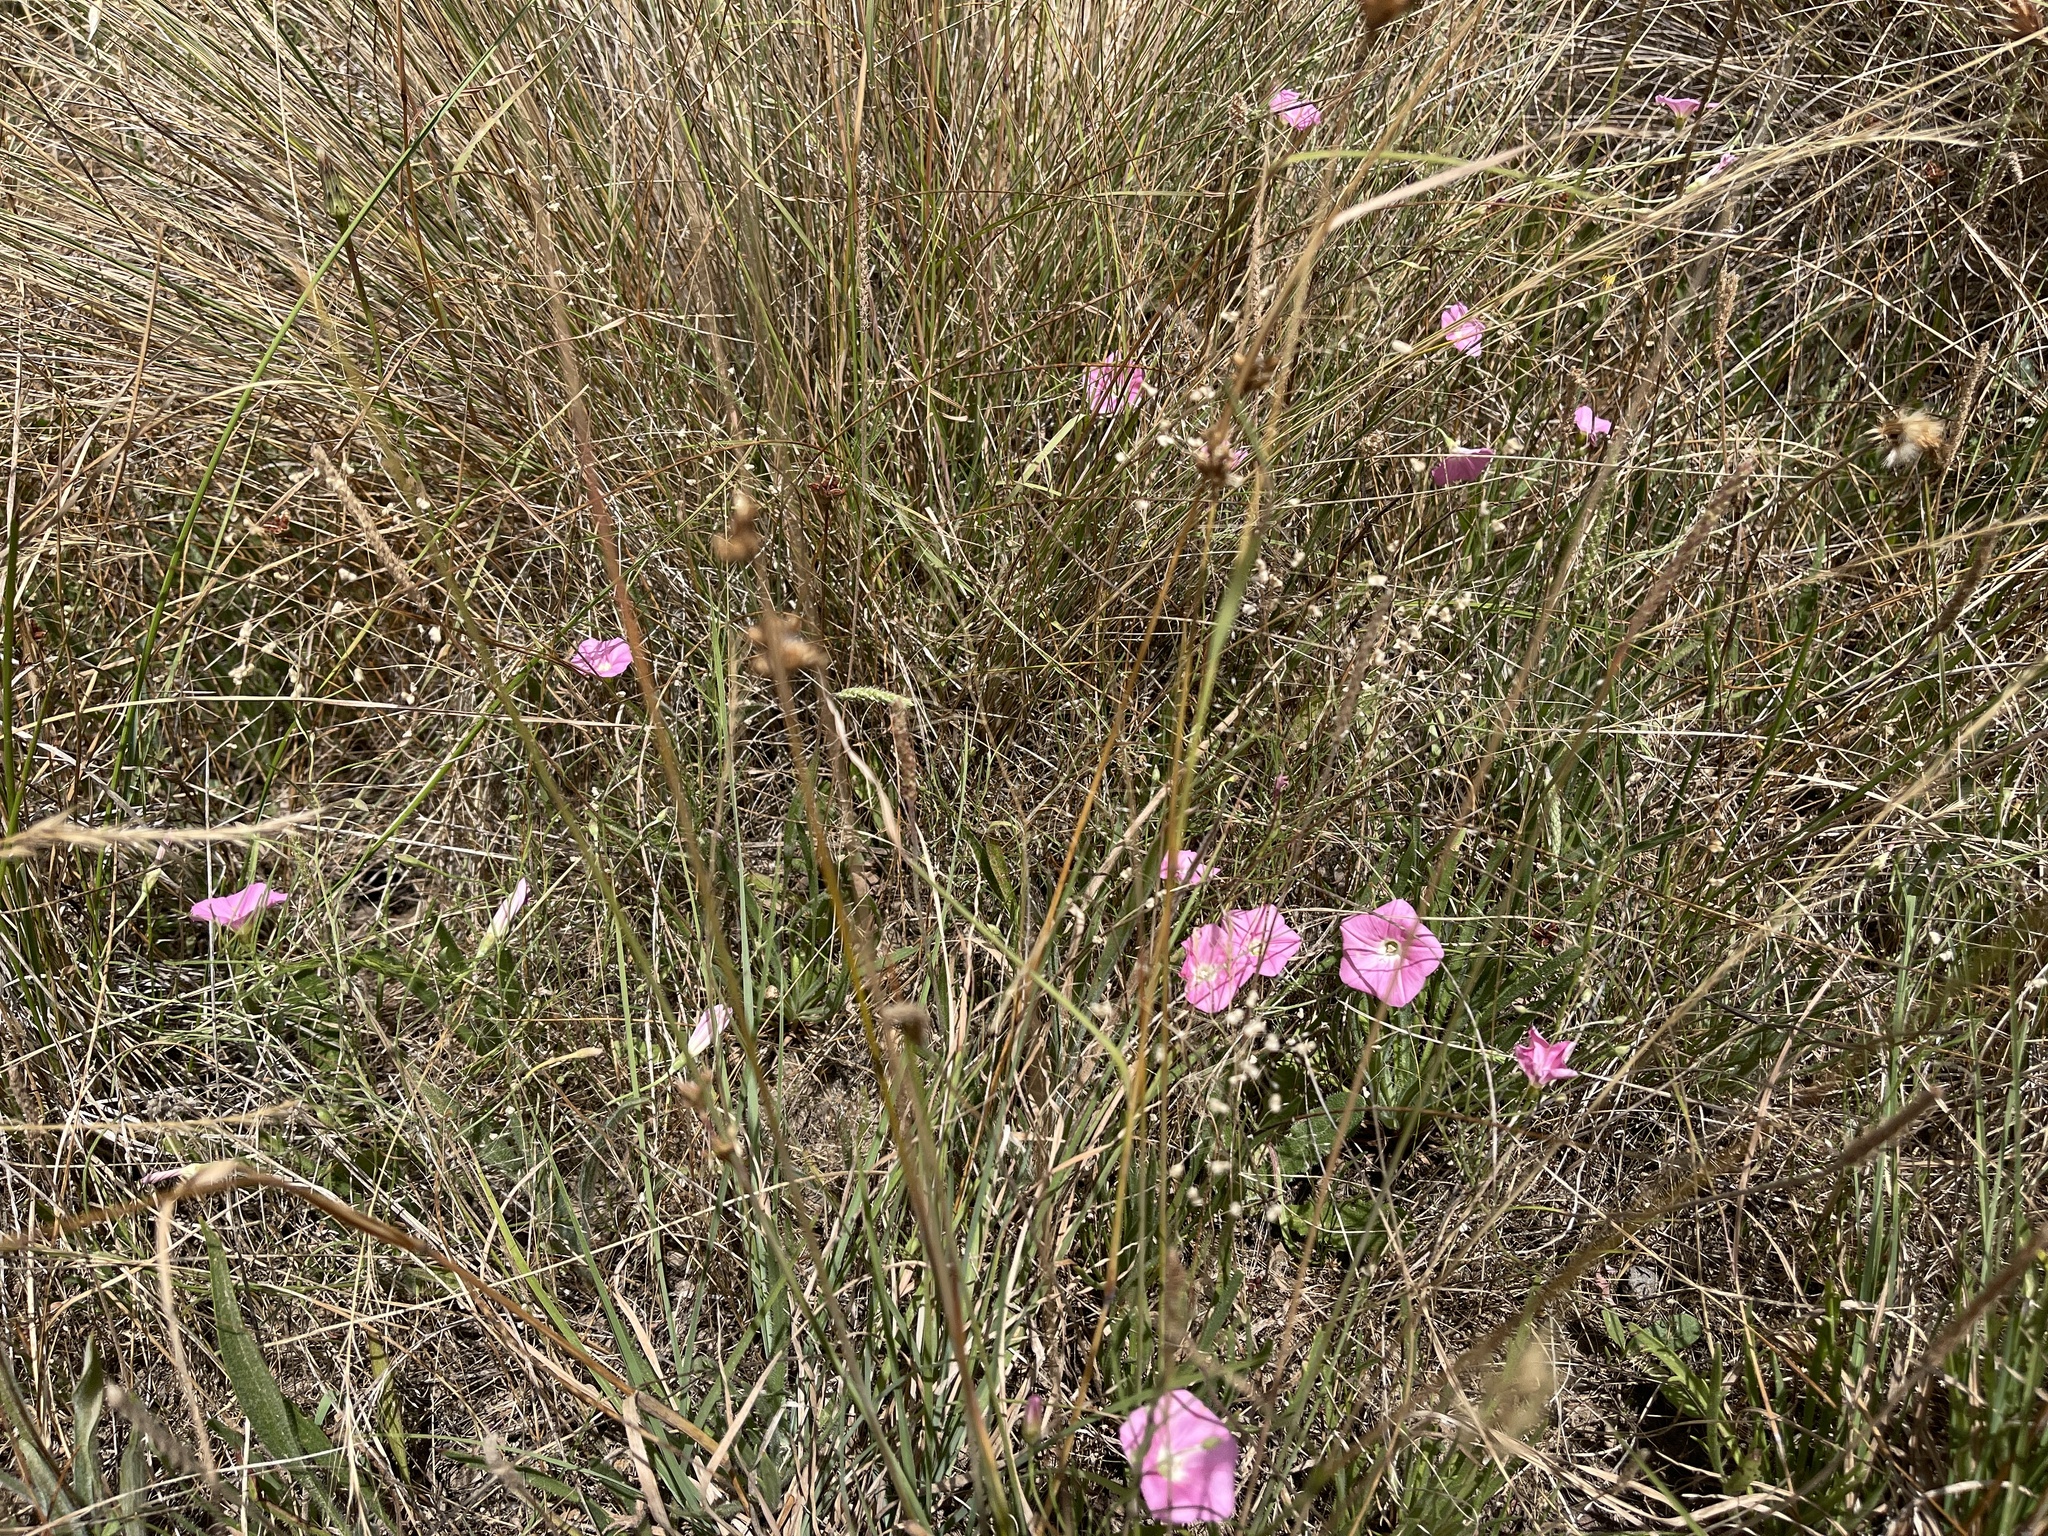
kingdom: Plantae
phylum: Tracheophyta
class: Magnoliopsida
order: Solanales
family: Convolvulaceae
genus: Convolvulus
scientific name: Convolvulus angustissimus
